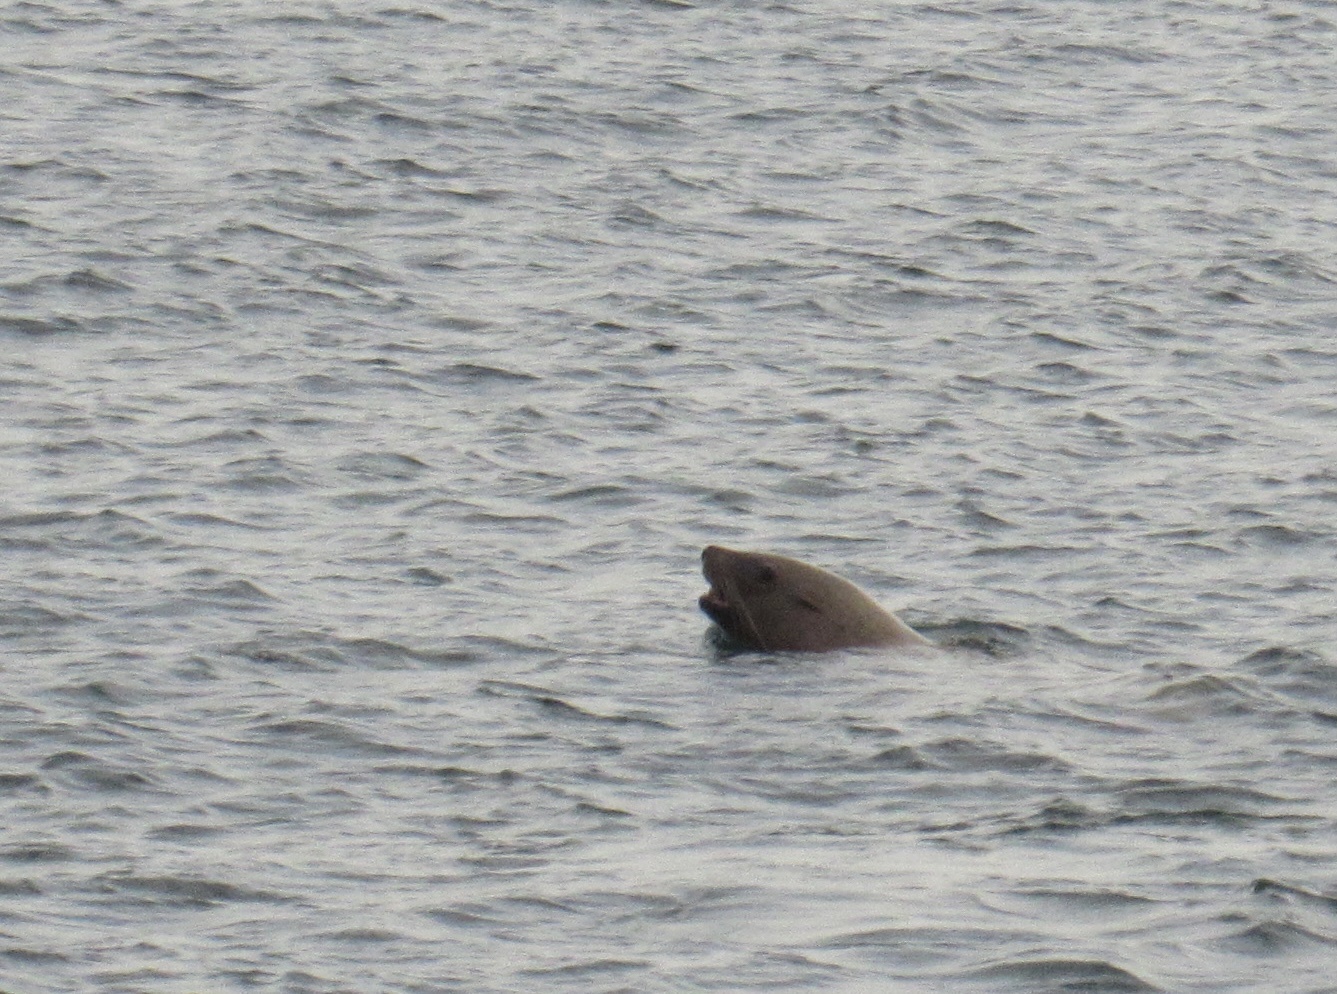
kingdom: Animalia
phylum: Chordata
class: Mammalia
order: Carnivora
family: Otariidae
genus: Eumetopias
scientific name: Eumetopias jubatus
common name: Steller sea lion
